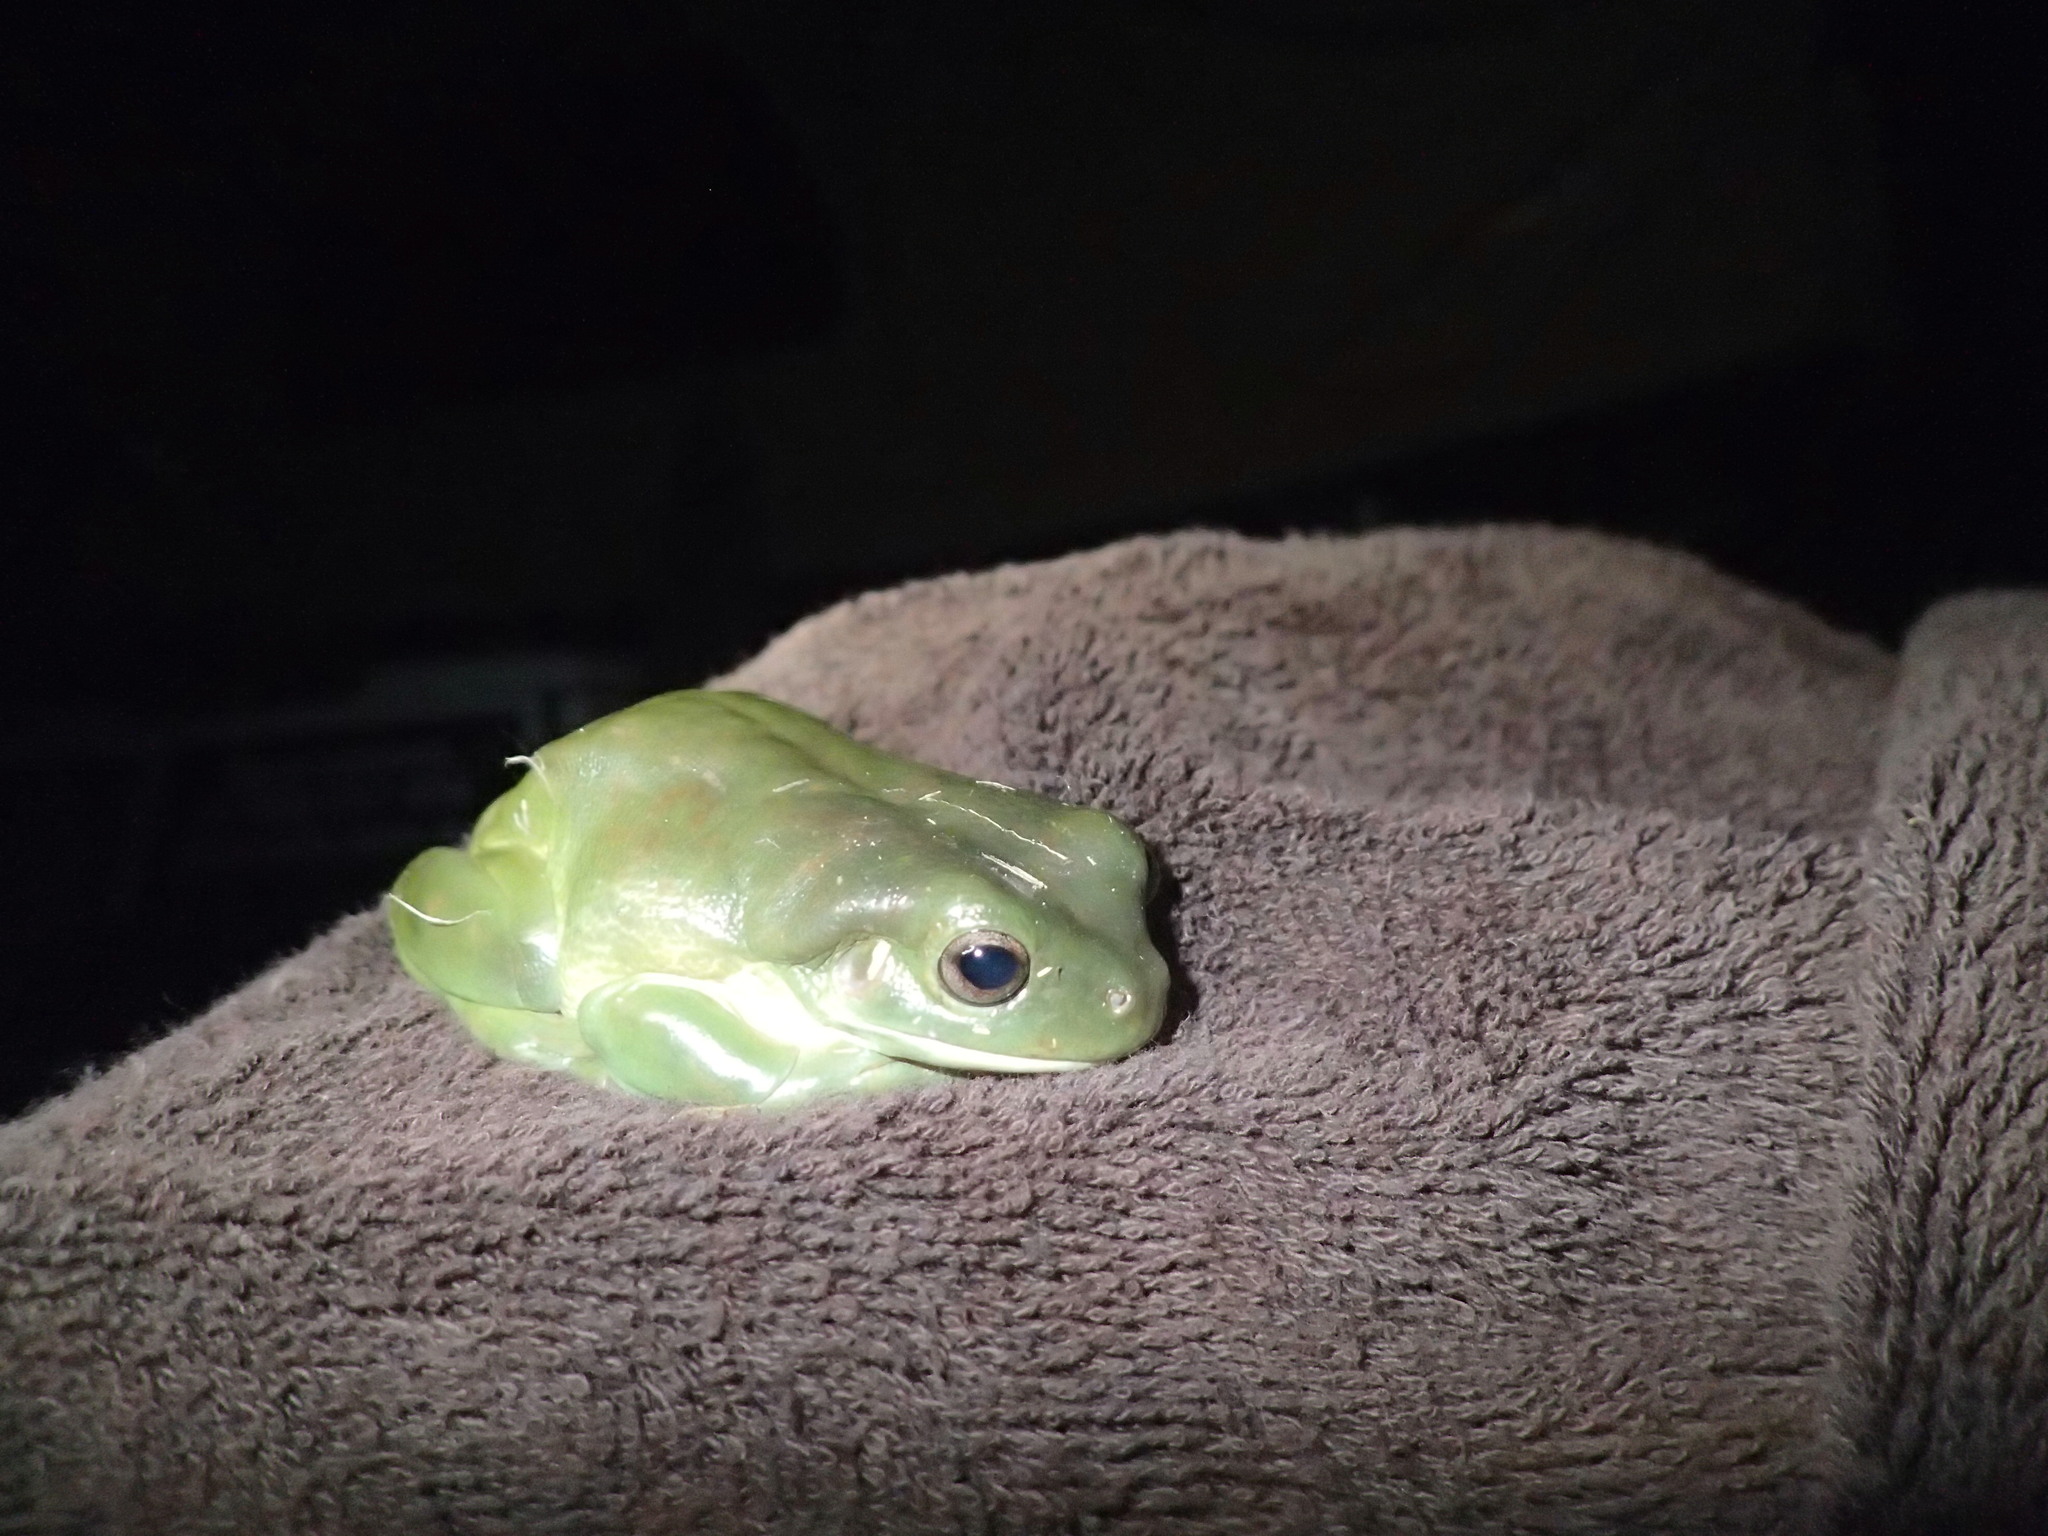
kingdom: Animalia
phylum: Chordata
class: Amphibia
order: Anura
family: Pelodryadidae
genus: Ranoidea
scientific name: Ranoidea caerulea
